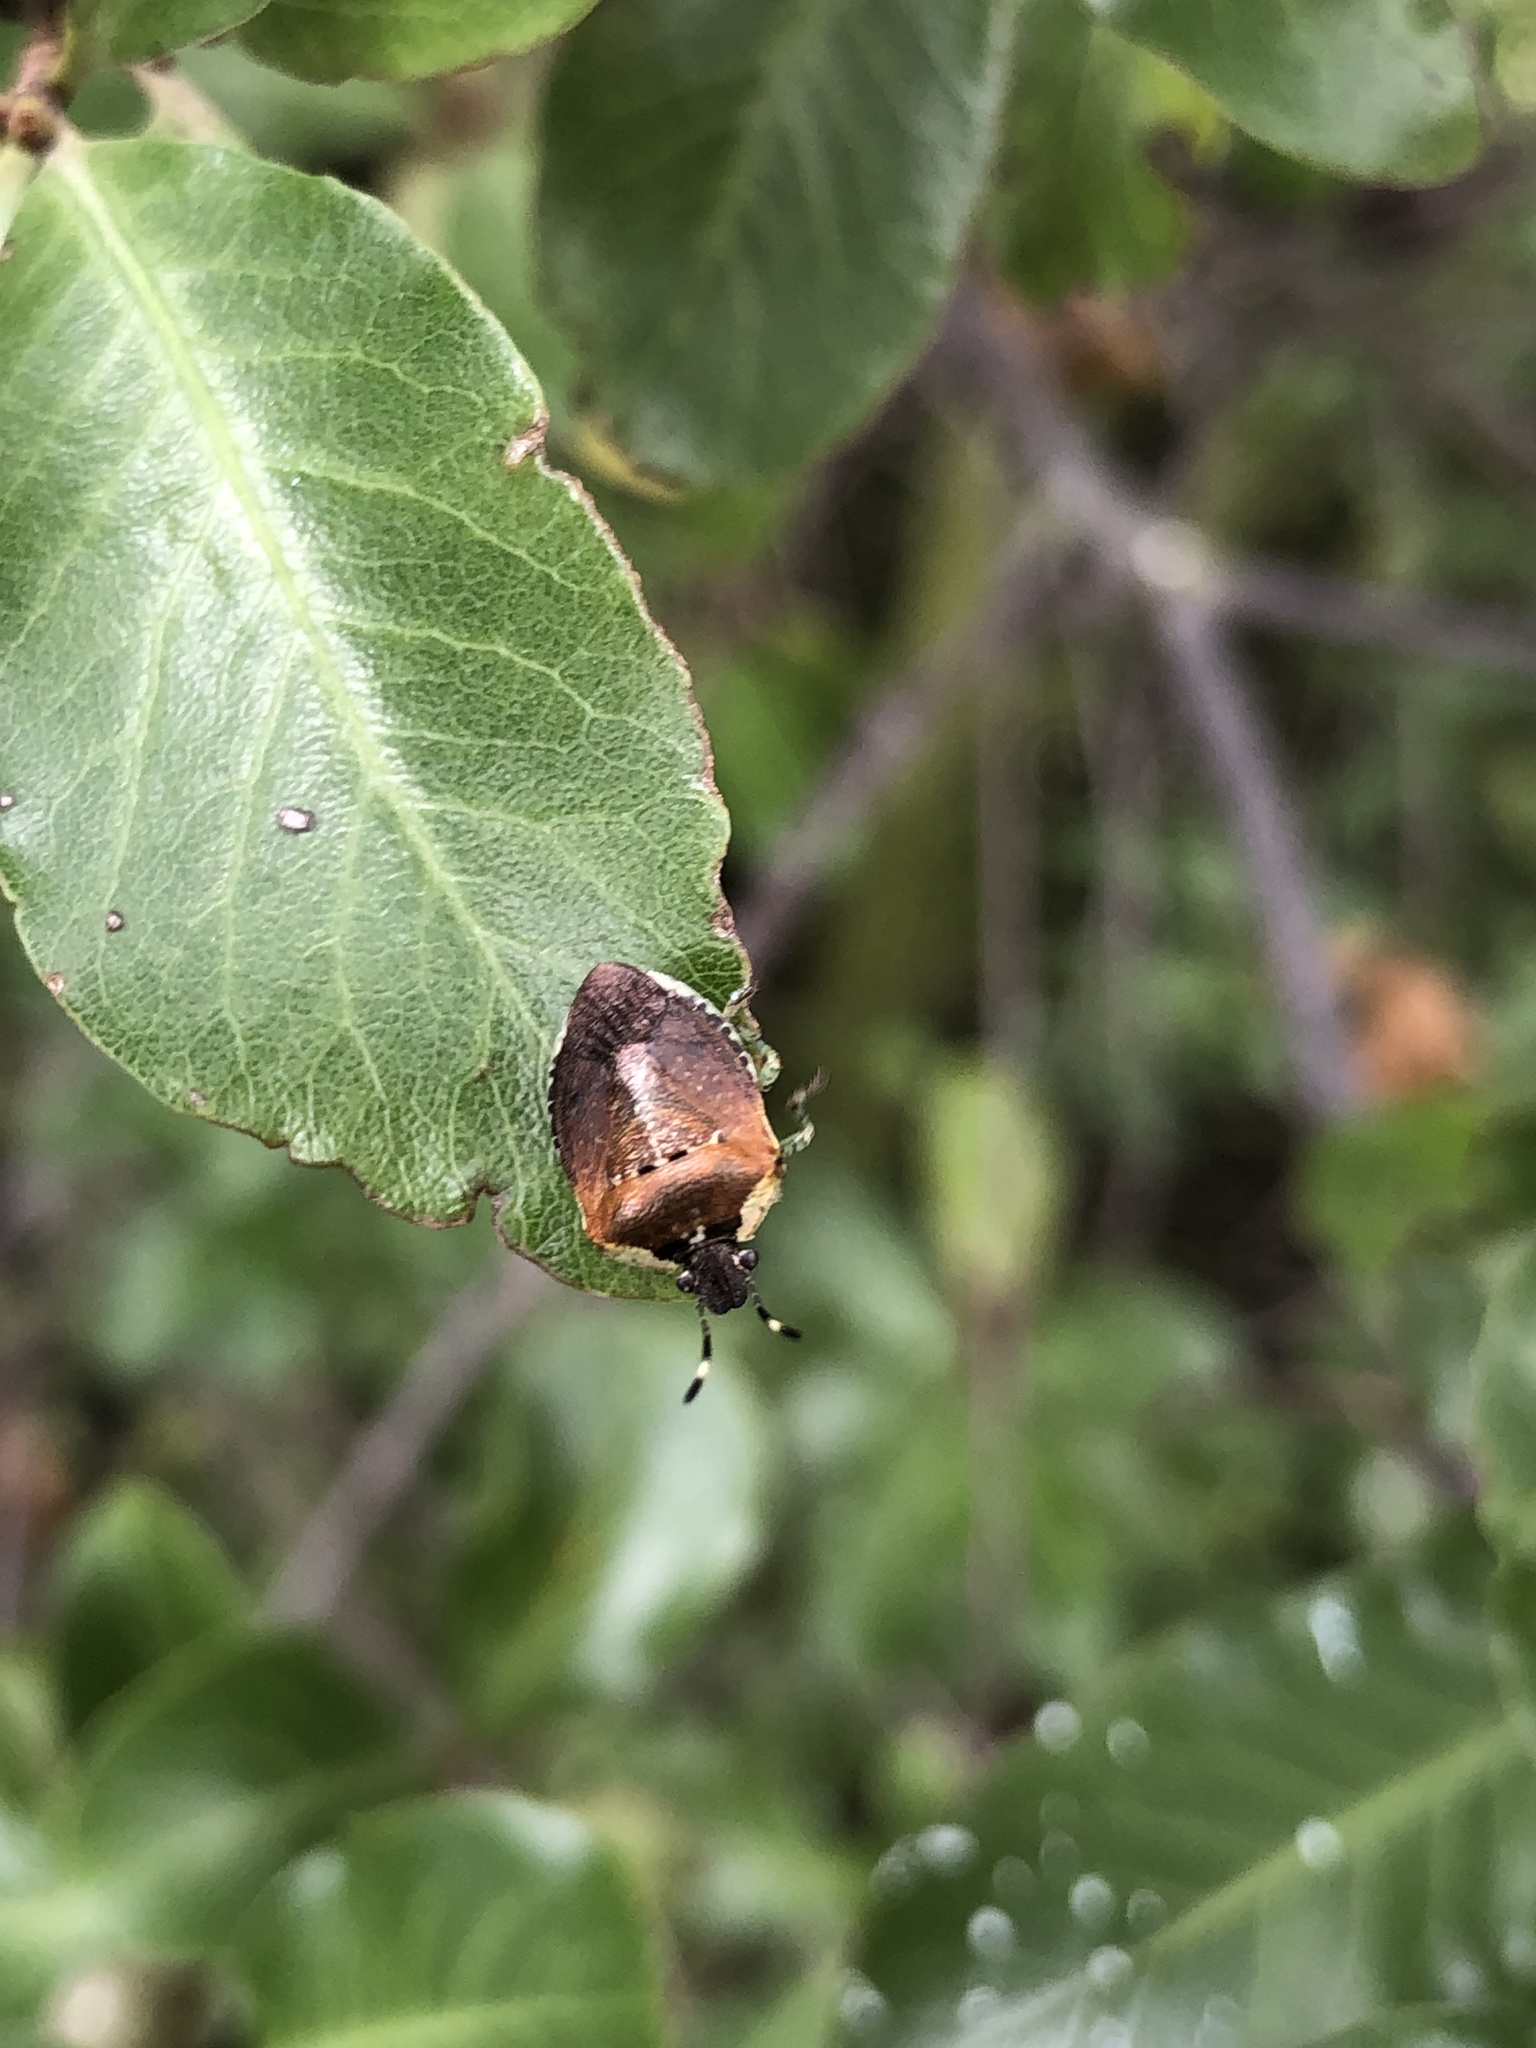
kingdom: Animalia
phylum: Arthropoda
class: Insecta
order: Hemiptera
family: Pentatomidae
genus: Monteithiella
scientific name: Monteithiella
